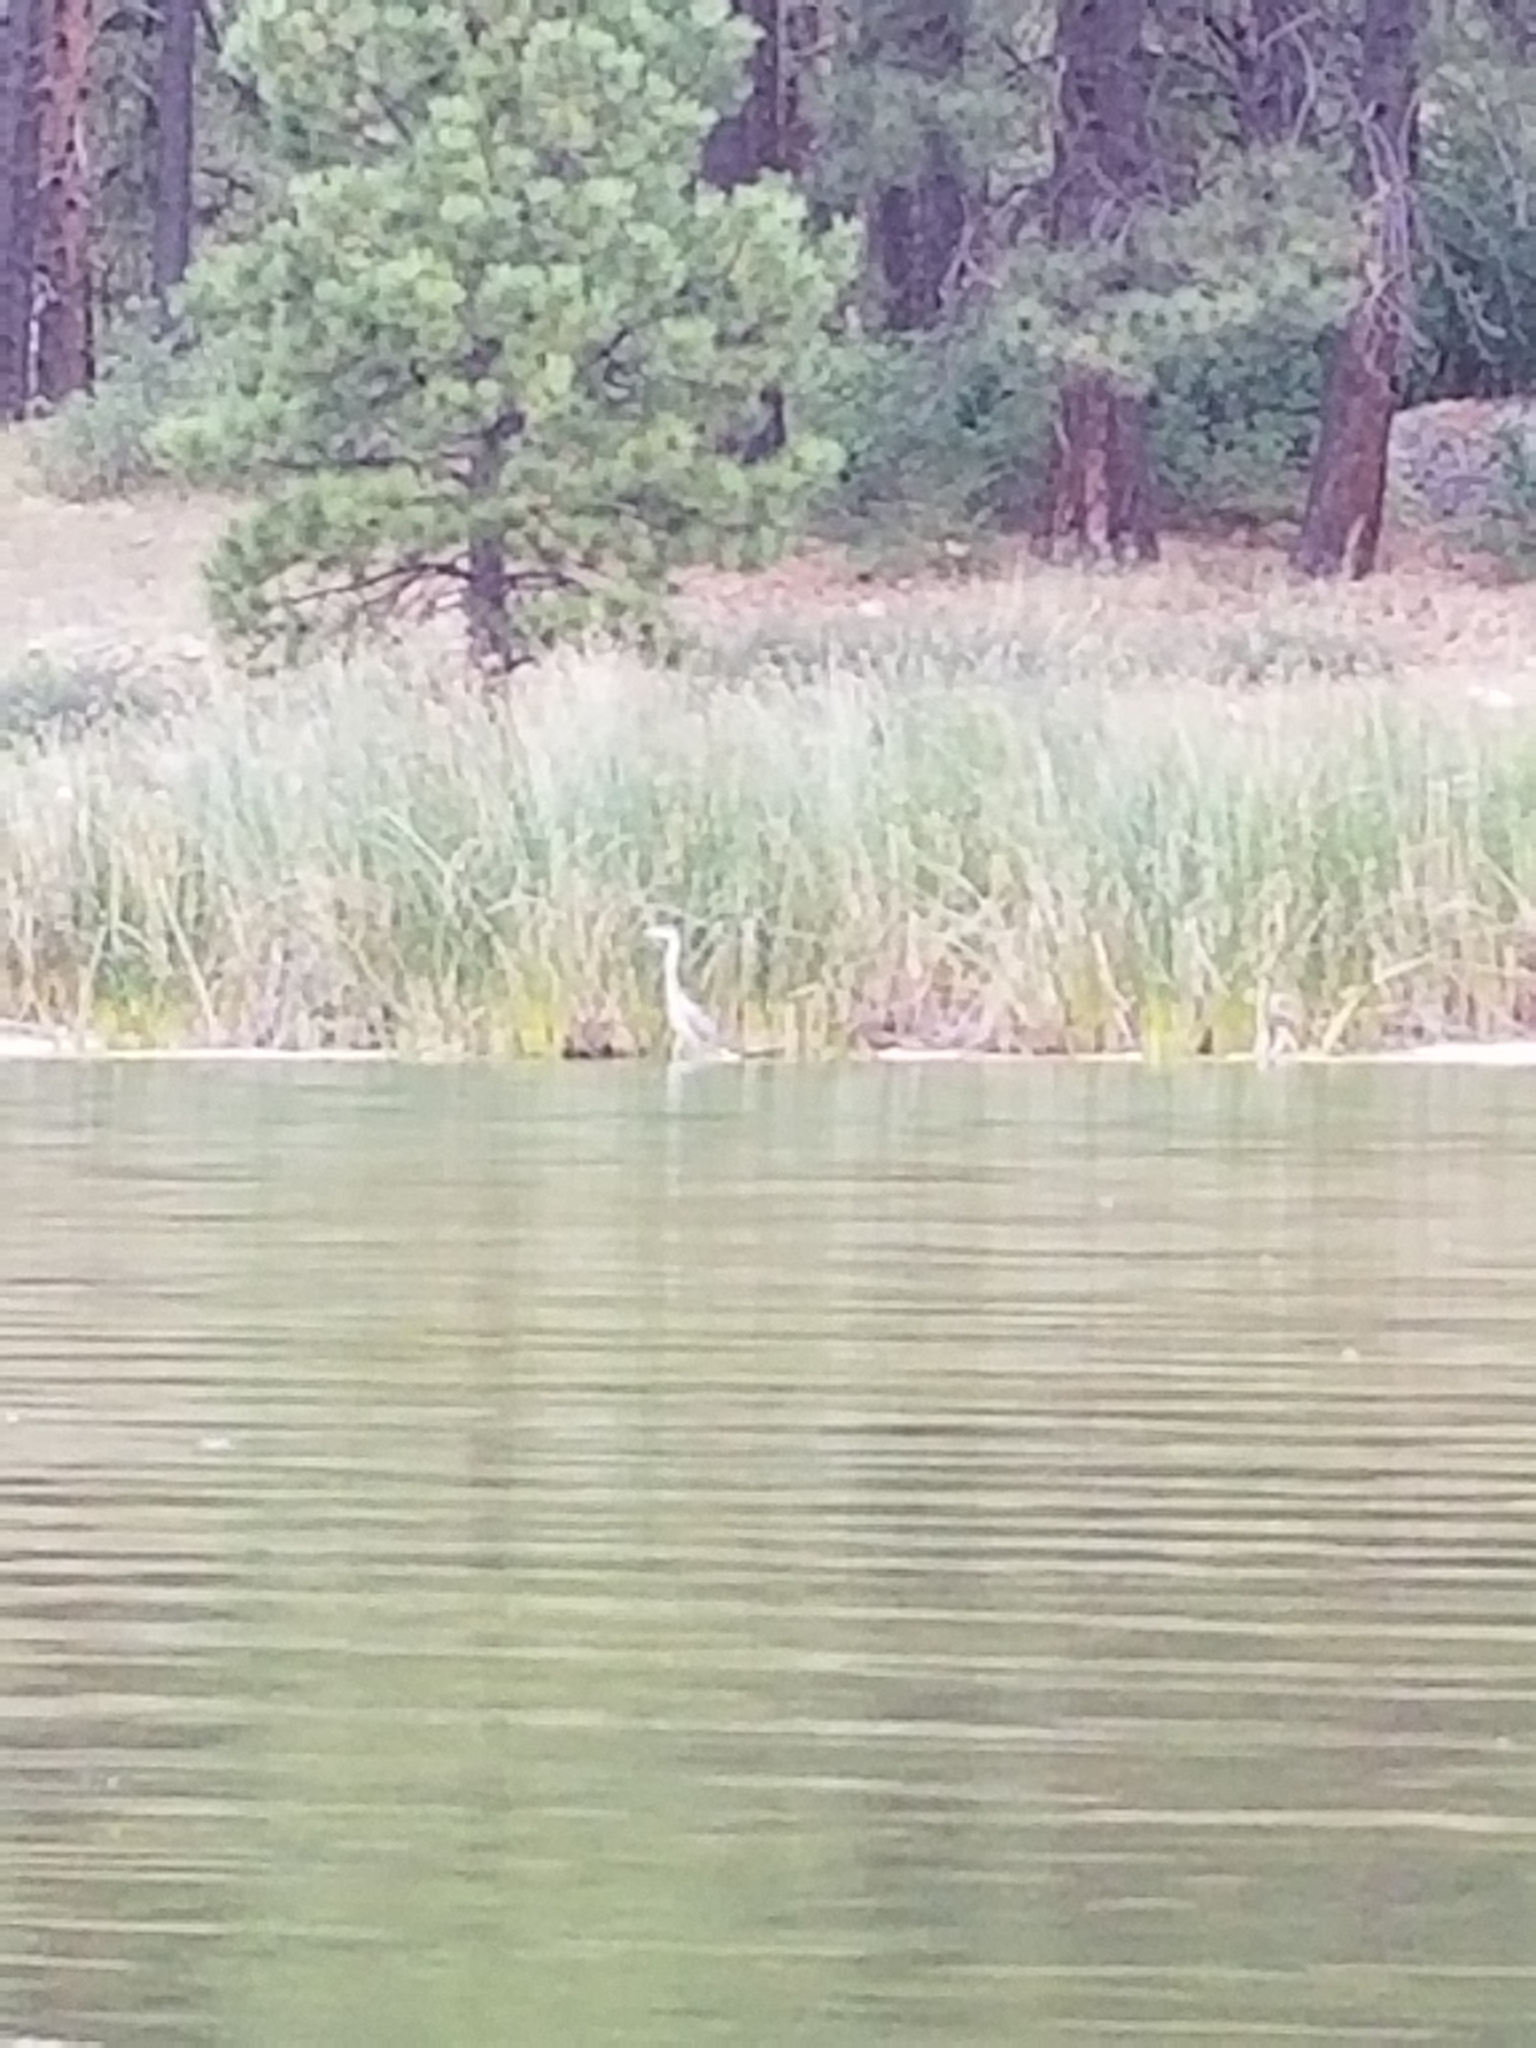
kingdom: Animalia
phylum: Chordata
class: Aves
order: Pelecaniformes
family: Ardeidae
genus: Ardea
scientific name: Ardea herodias
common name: Great blue heron
